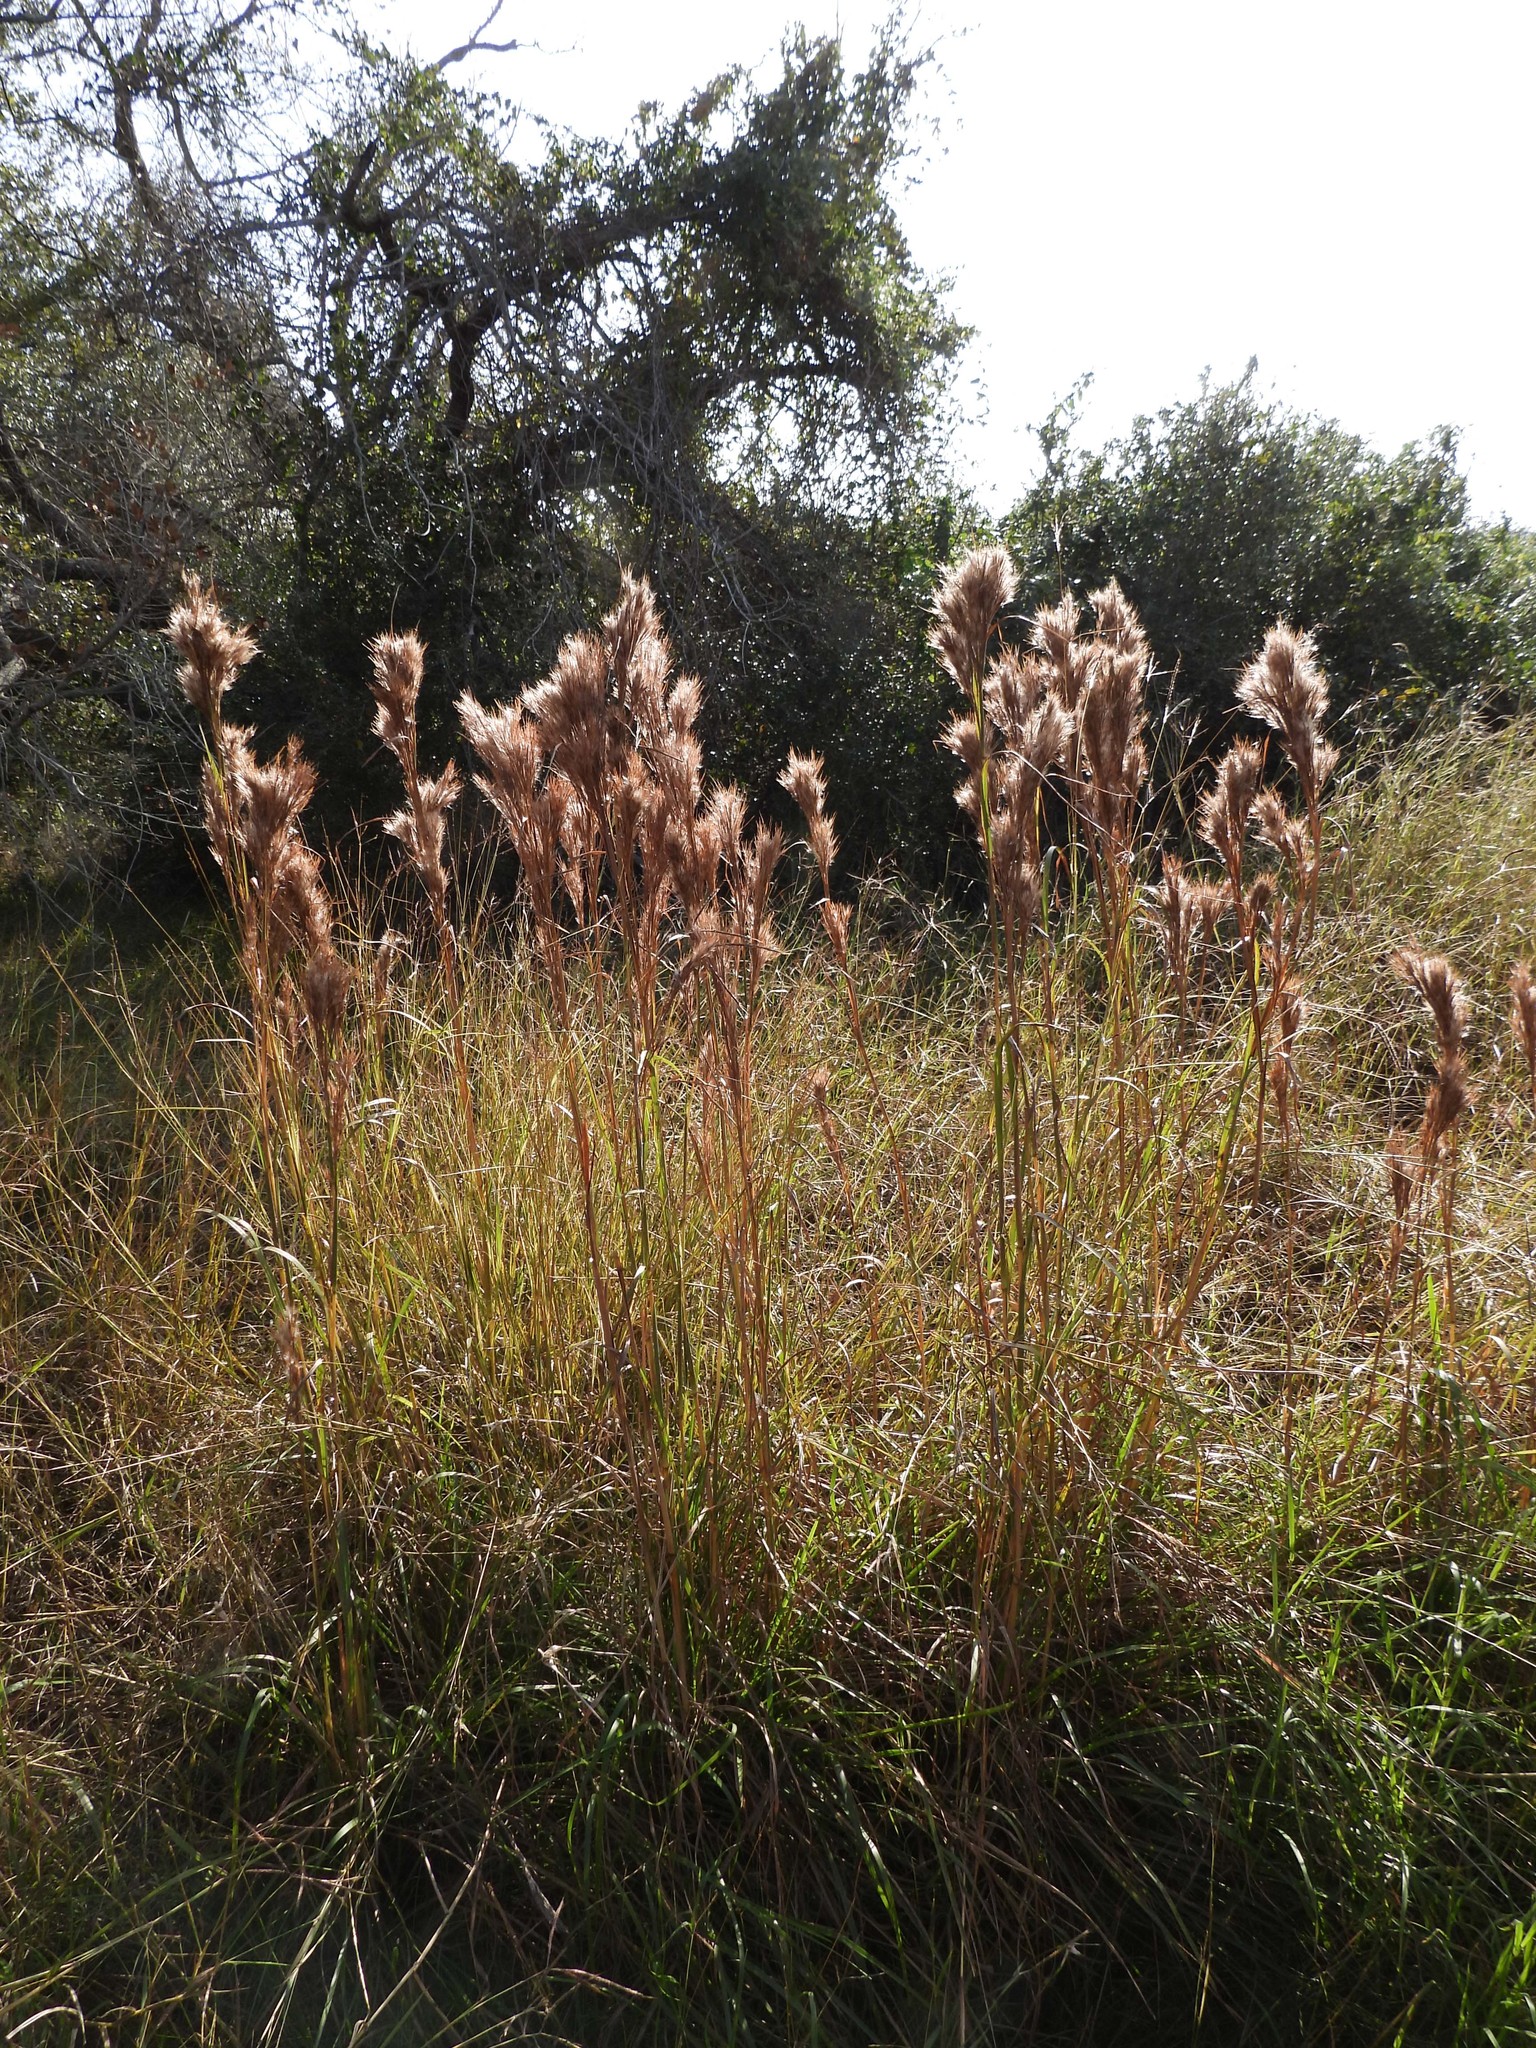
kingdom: Plantae
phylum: Tracheophyta
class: Liliopsida
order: Poales
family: Poaceae
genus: Andropogon
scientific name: Andropogon tenuispatheus
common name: Bushy bluestem
